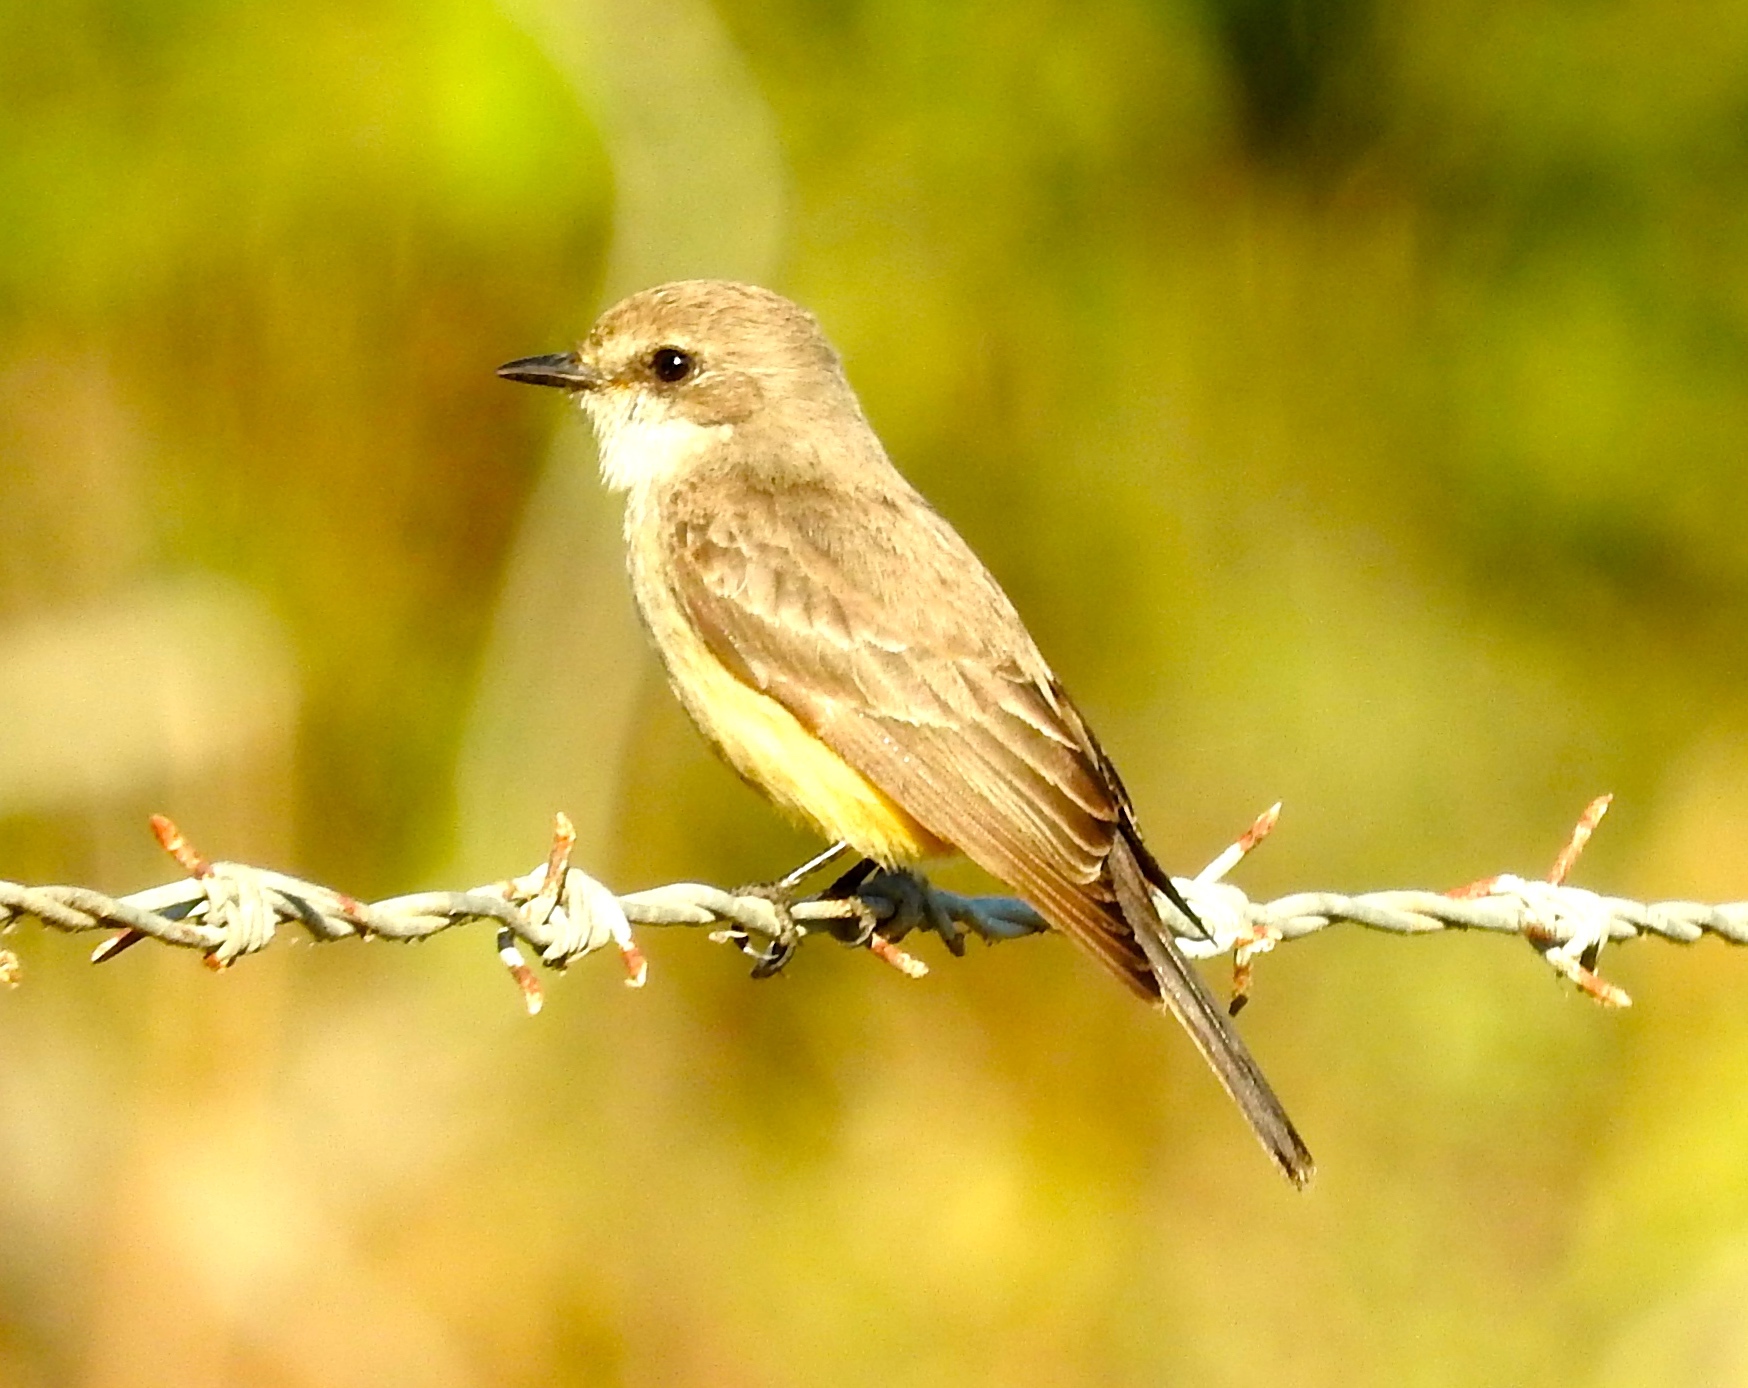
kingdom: Animalia
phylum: Chordata
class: Aves
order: Passeriformes
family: Tyrannidae
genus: Pyrocephalus
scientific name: Pyrocephalus rubinus
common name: Vermilion flycatcher
